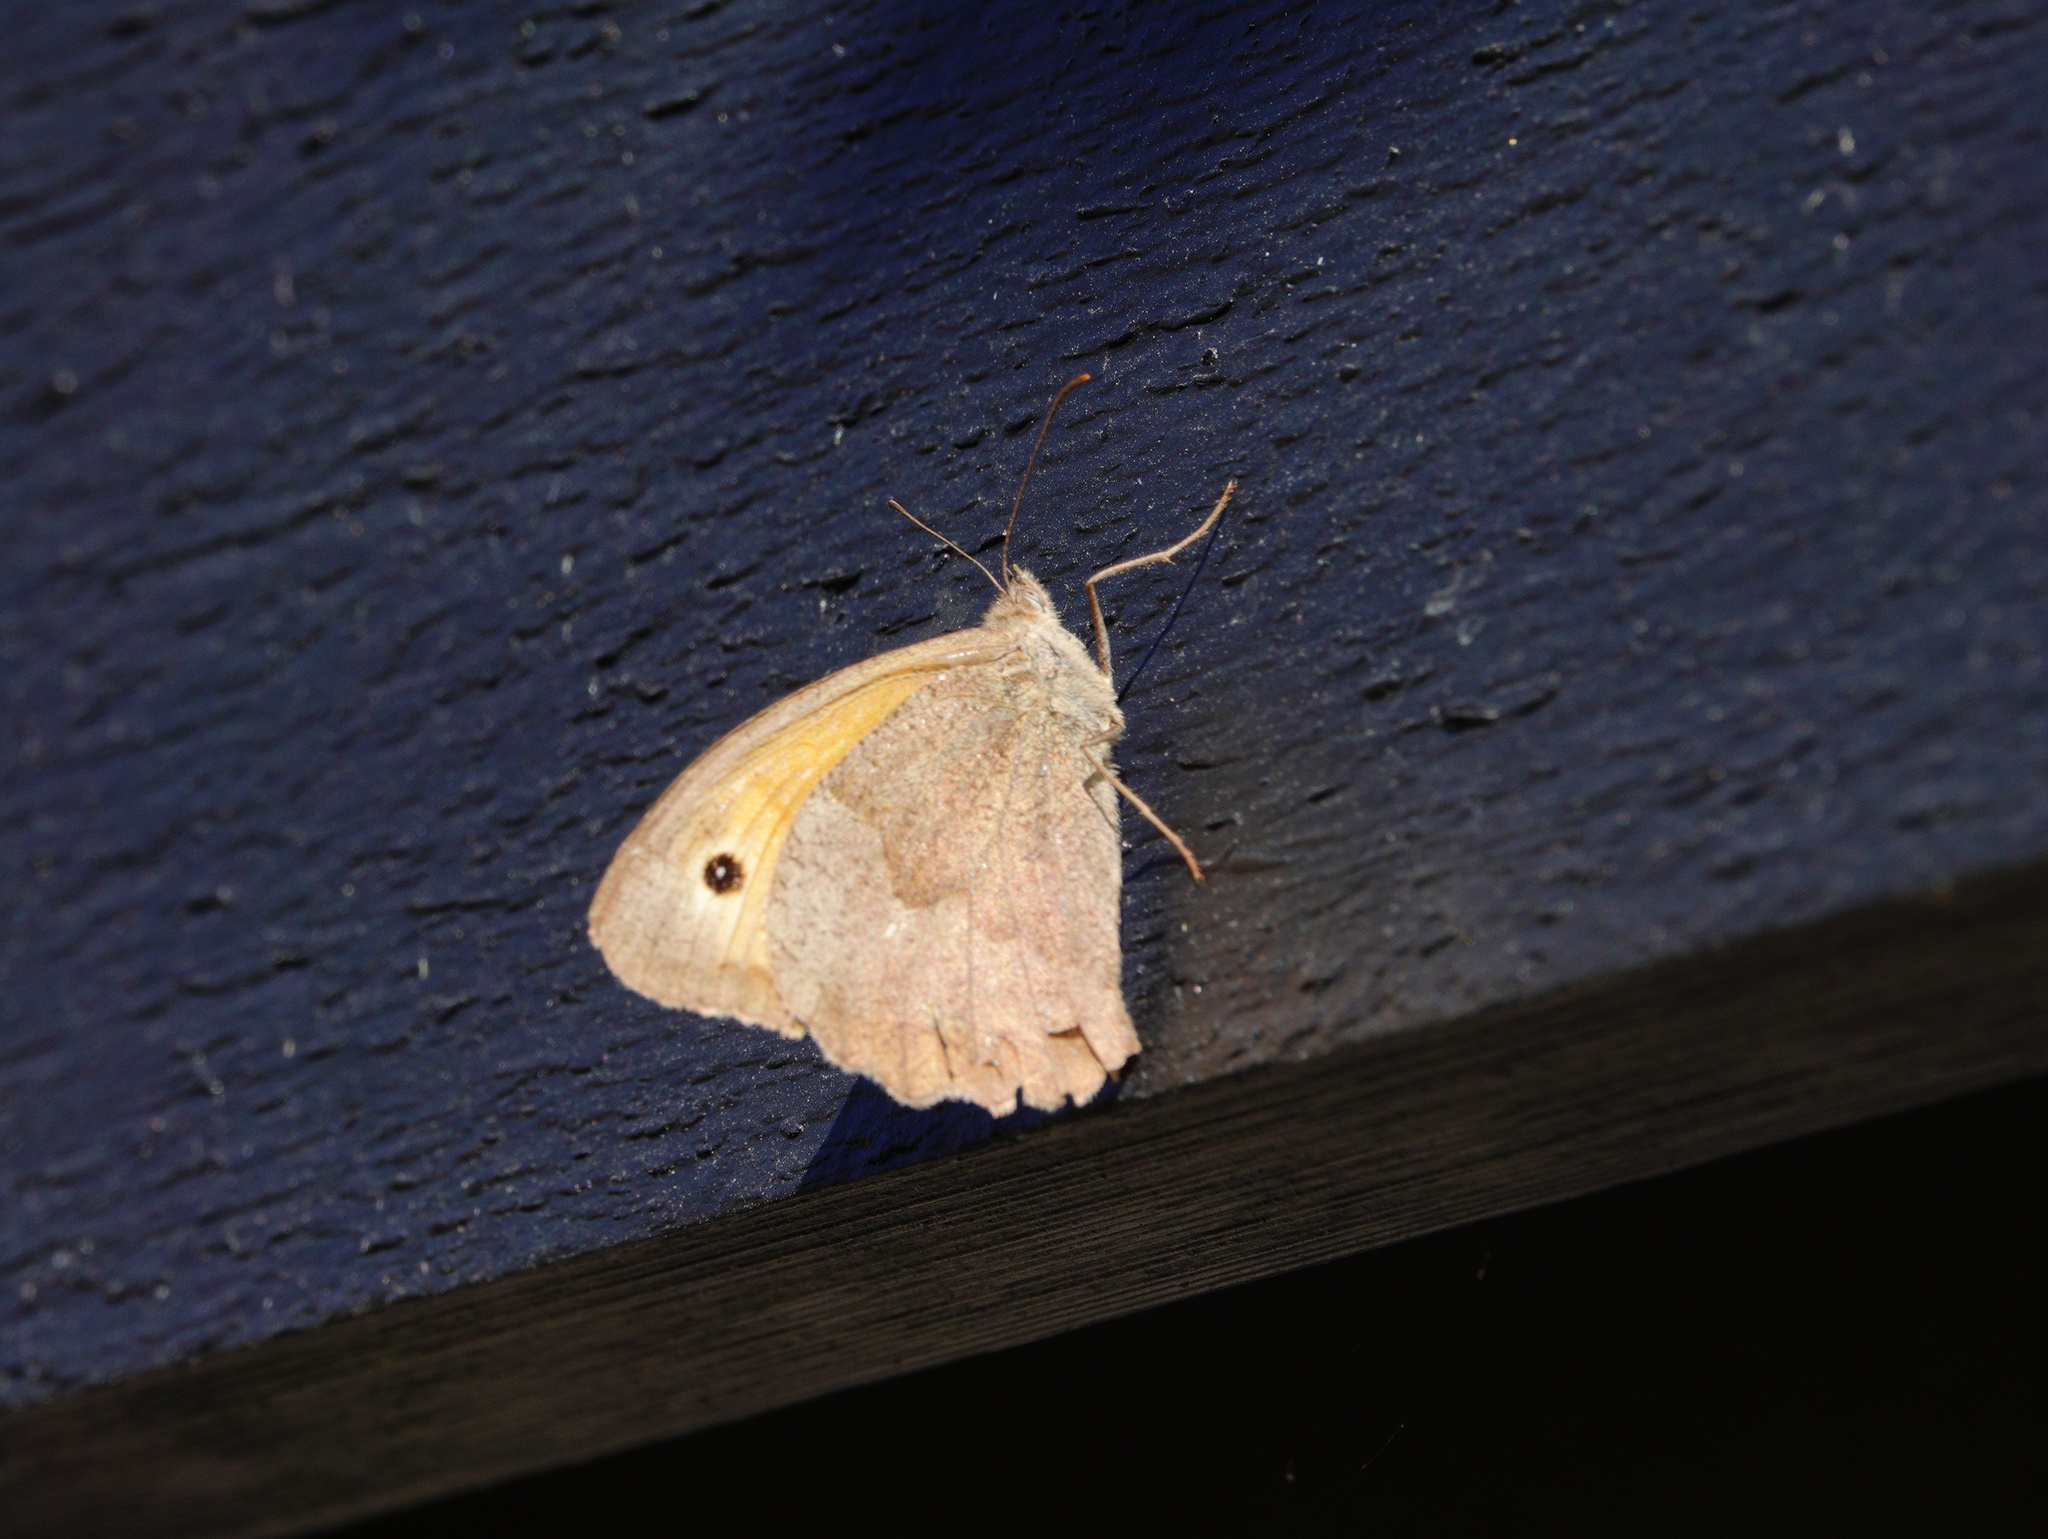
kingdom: Animalia
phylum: Arthropoda
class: Insecta
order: Lepidoptera
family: Nymphalidae
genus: Maniola
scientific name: Maniola jurtina
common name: Meadow brown
